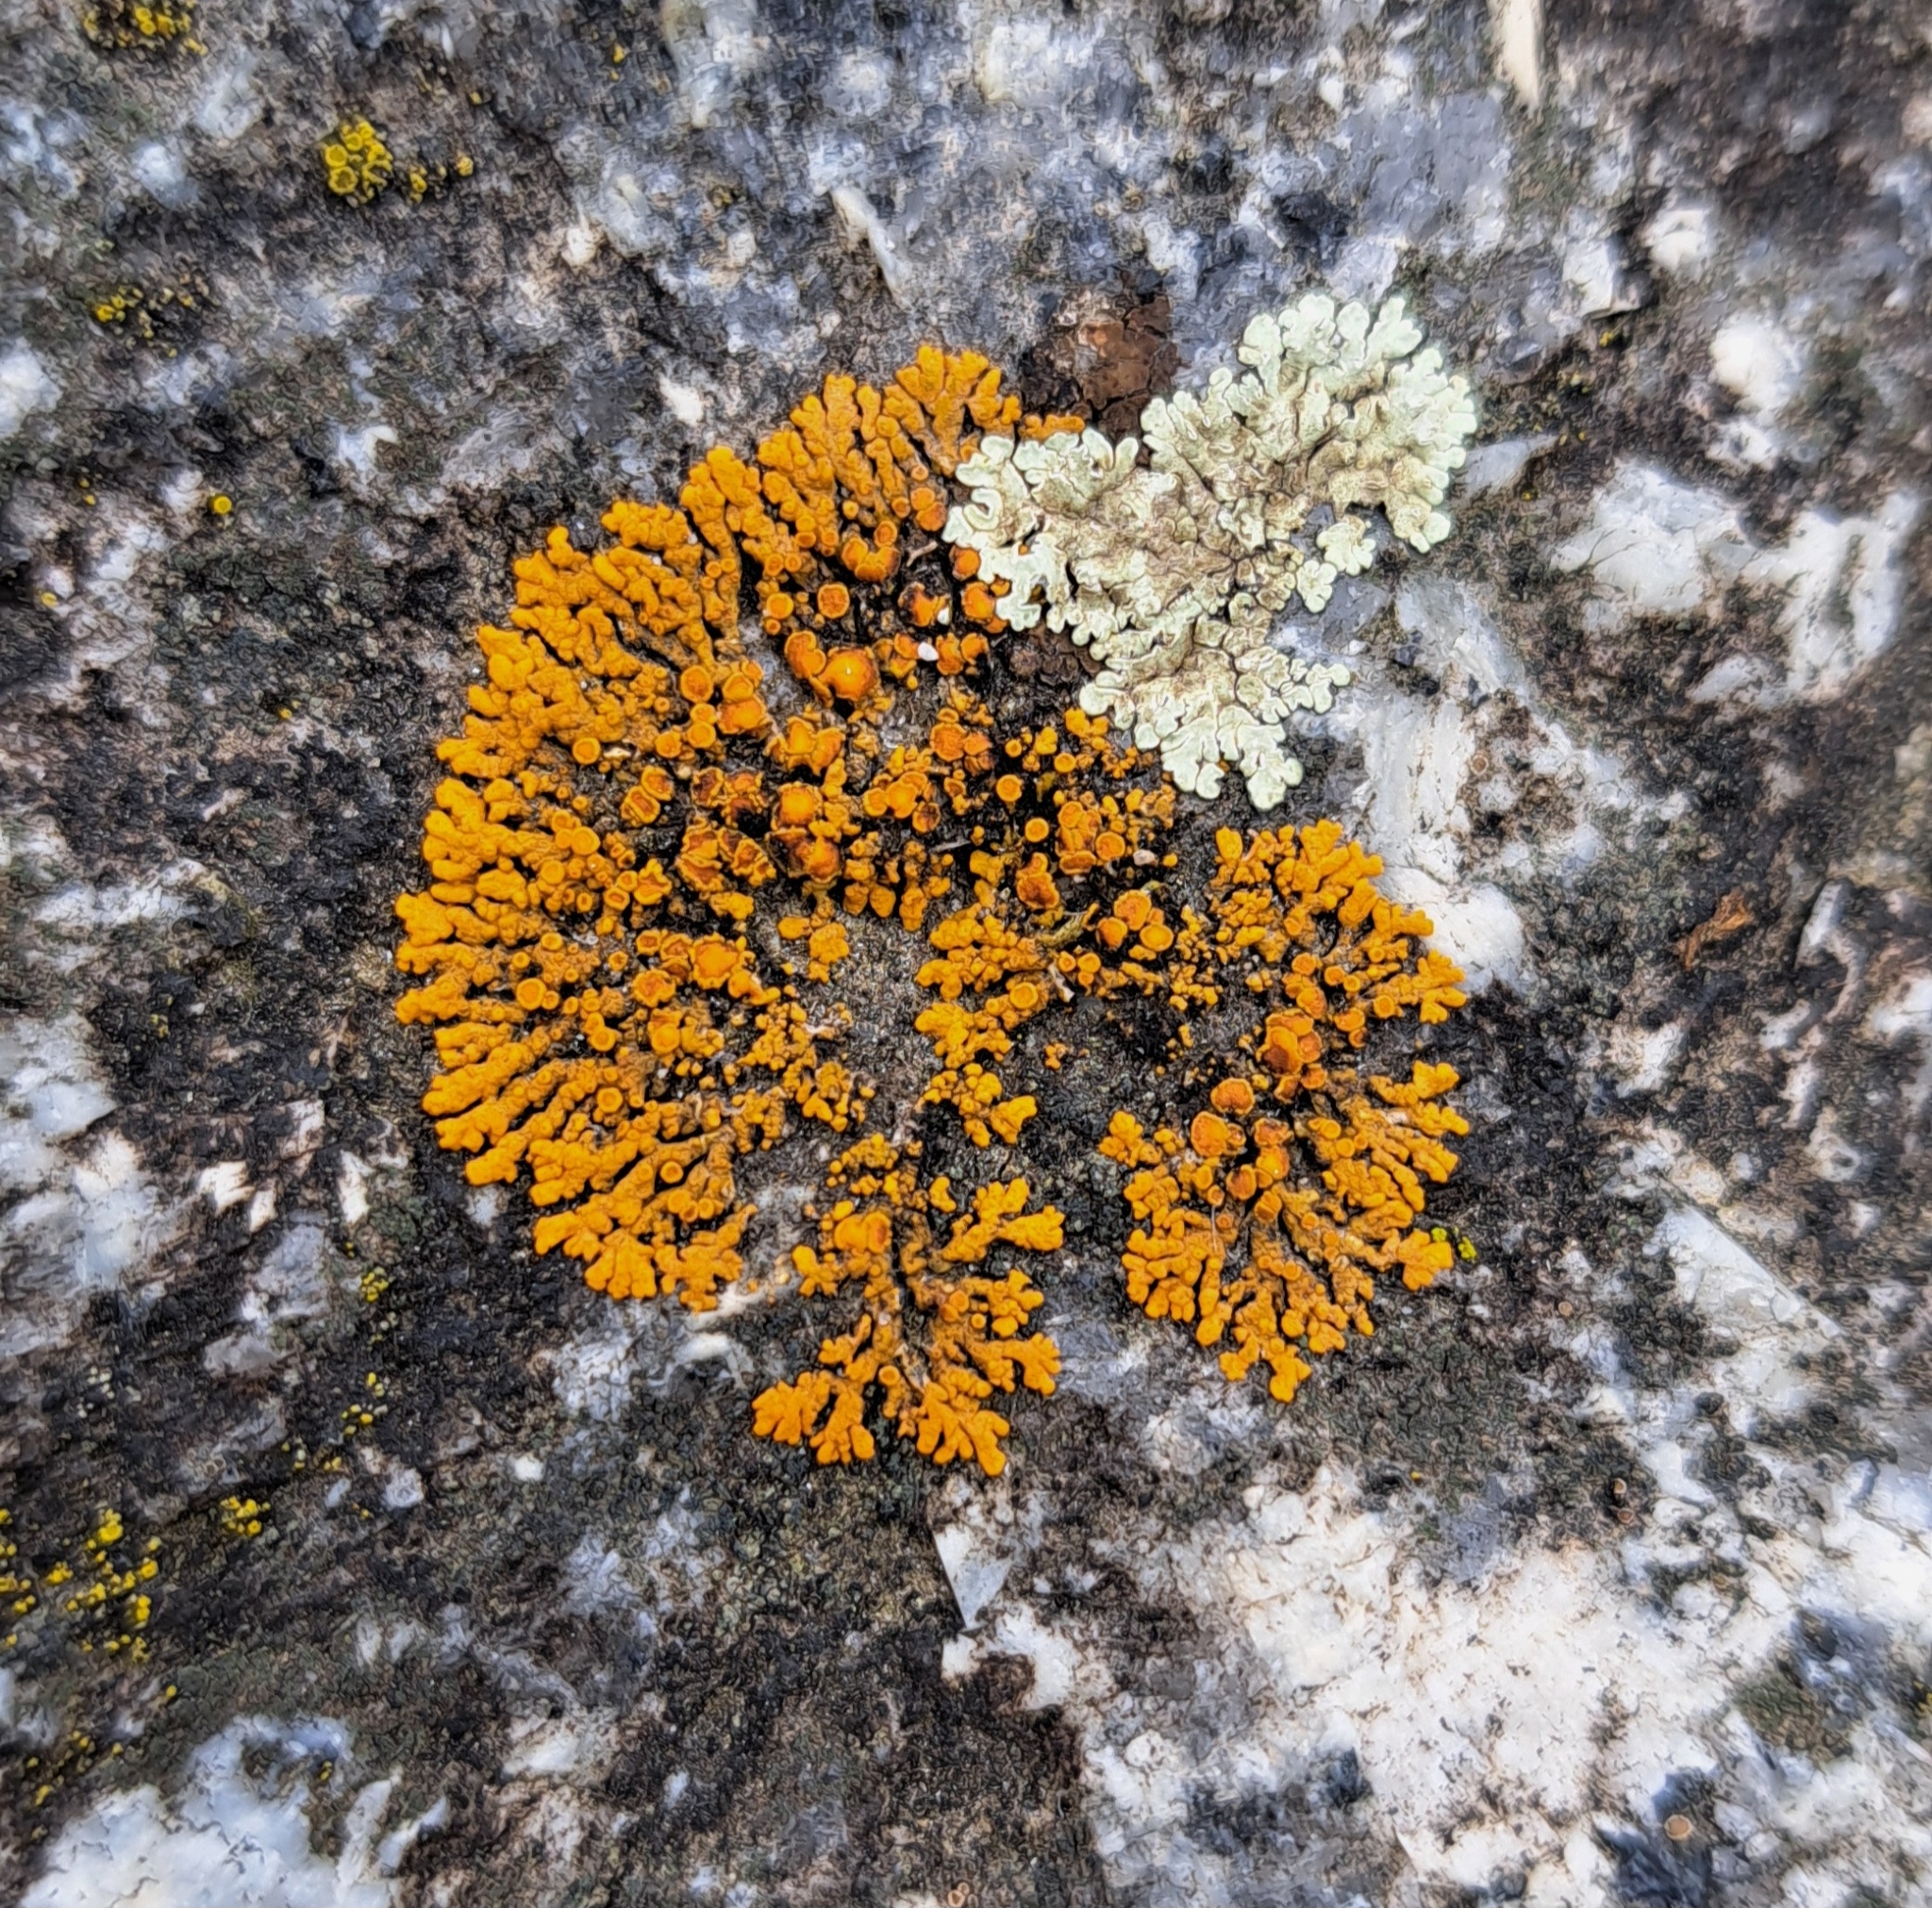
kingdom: Fungi
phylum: Ascomycota
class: Lecanoromycetes
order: Teloschistales
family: Teloschistaceae
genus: Xanthoria
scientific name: Xanthoria elegans
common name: Elegant sunburst lichen
